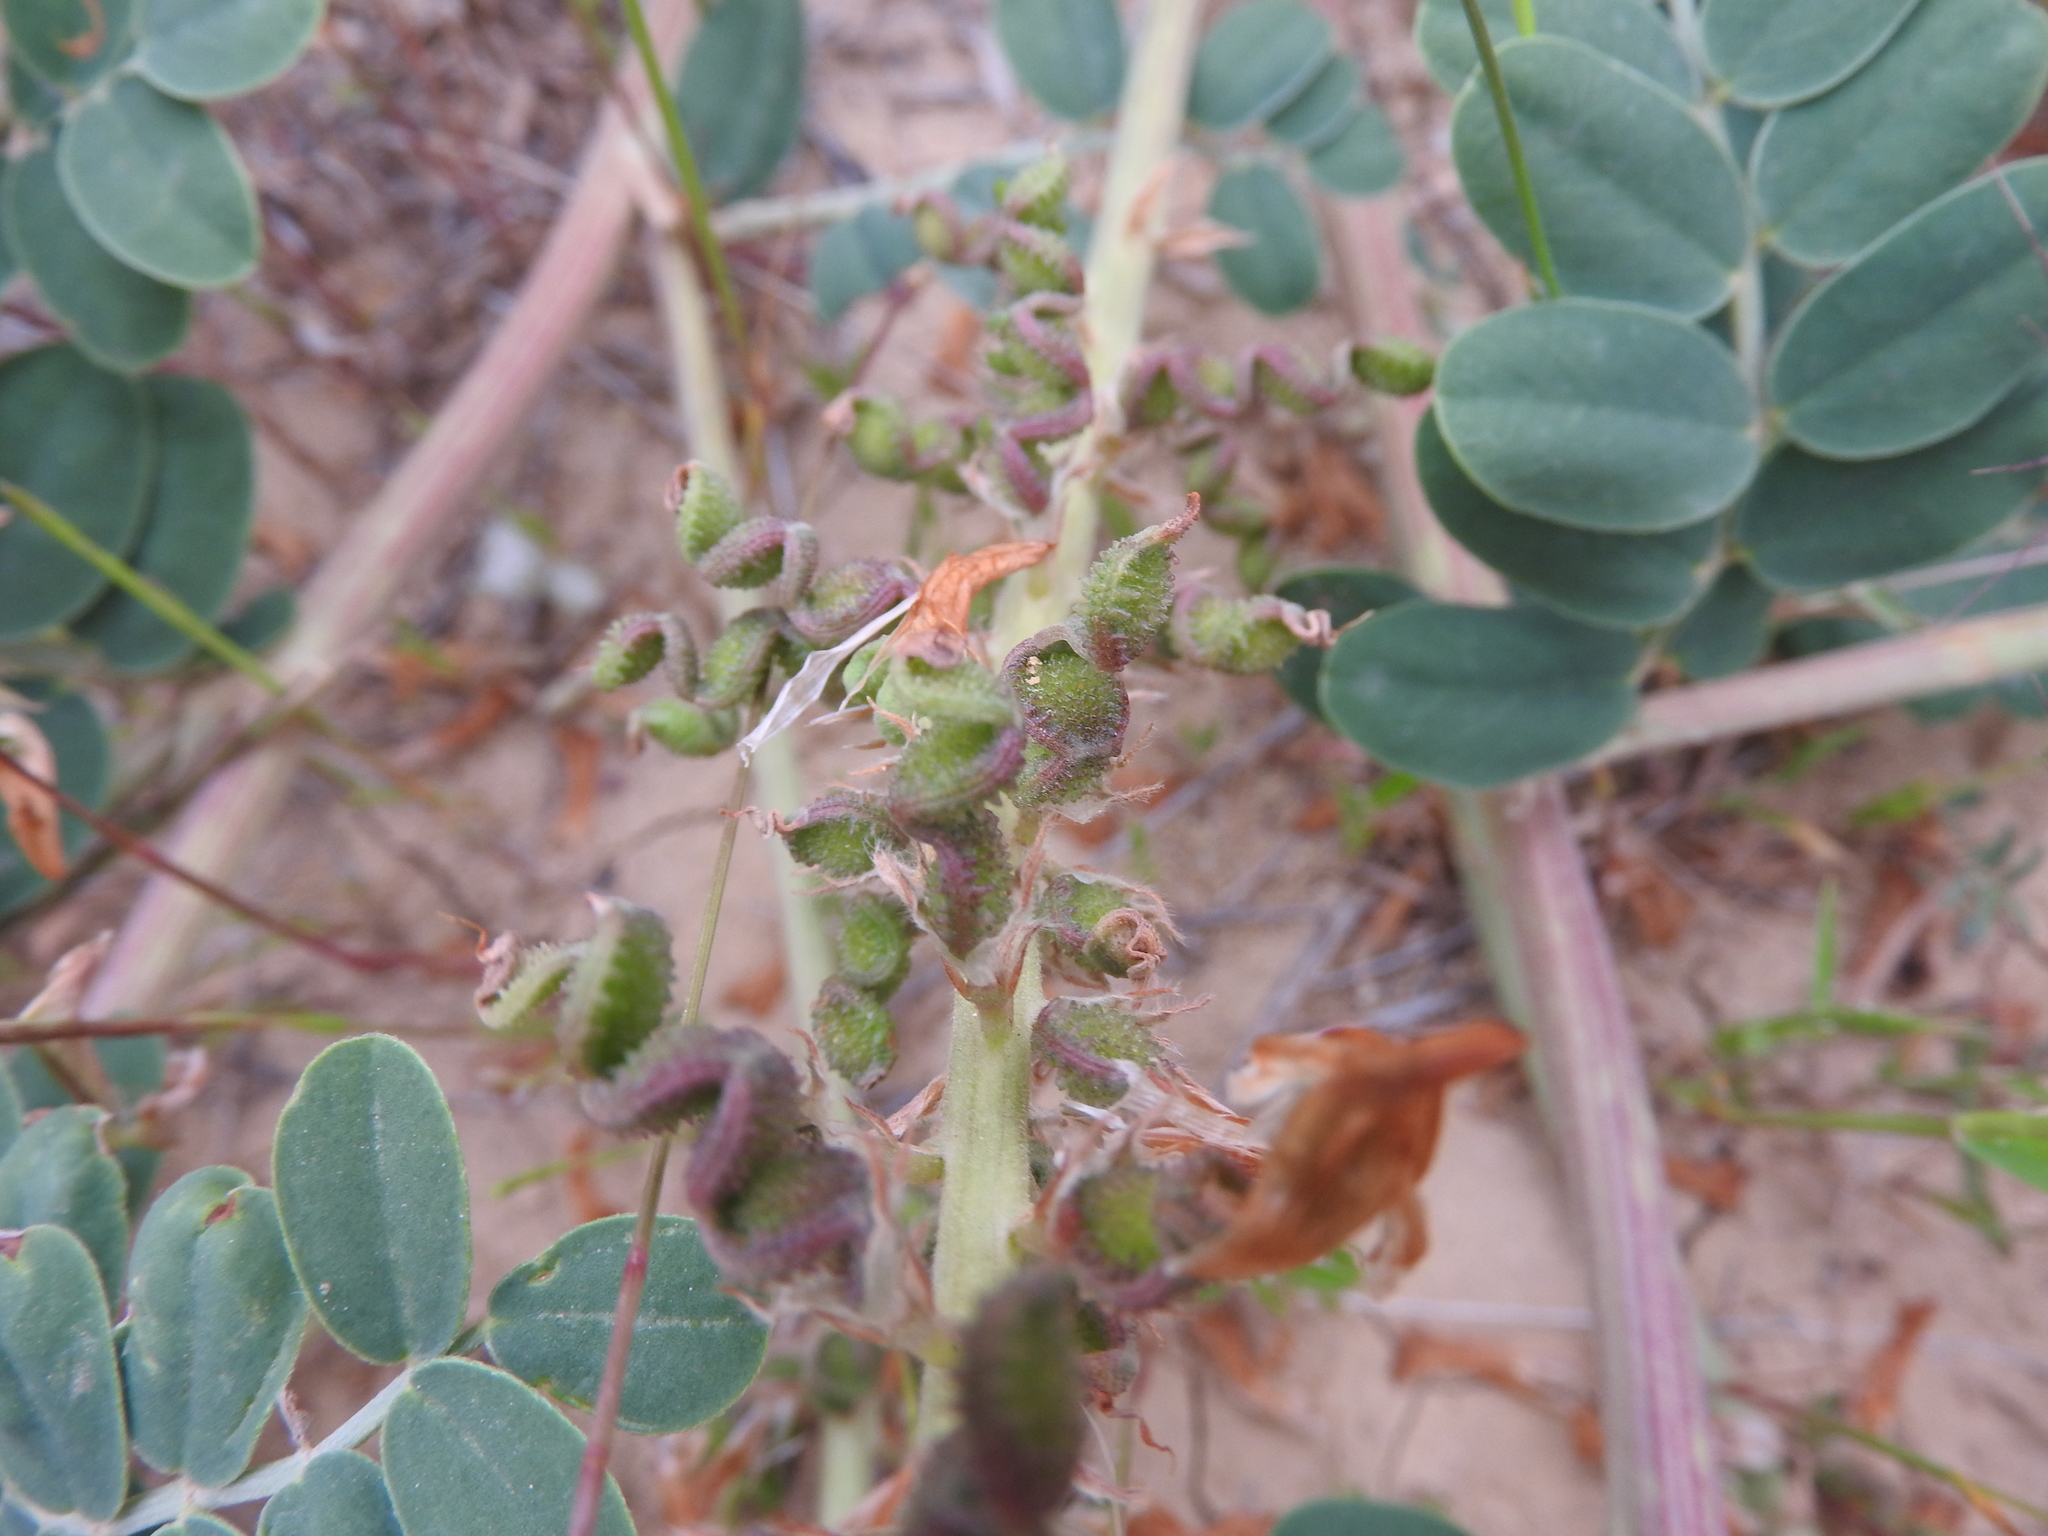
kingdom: Plantae
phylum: Tracheophyta
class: Magnoliopsida
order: Fabales
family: Fabaceae
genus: Sulla
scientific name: Sulla pallida
